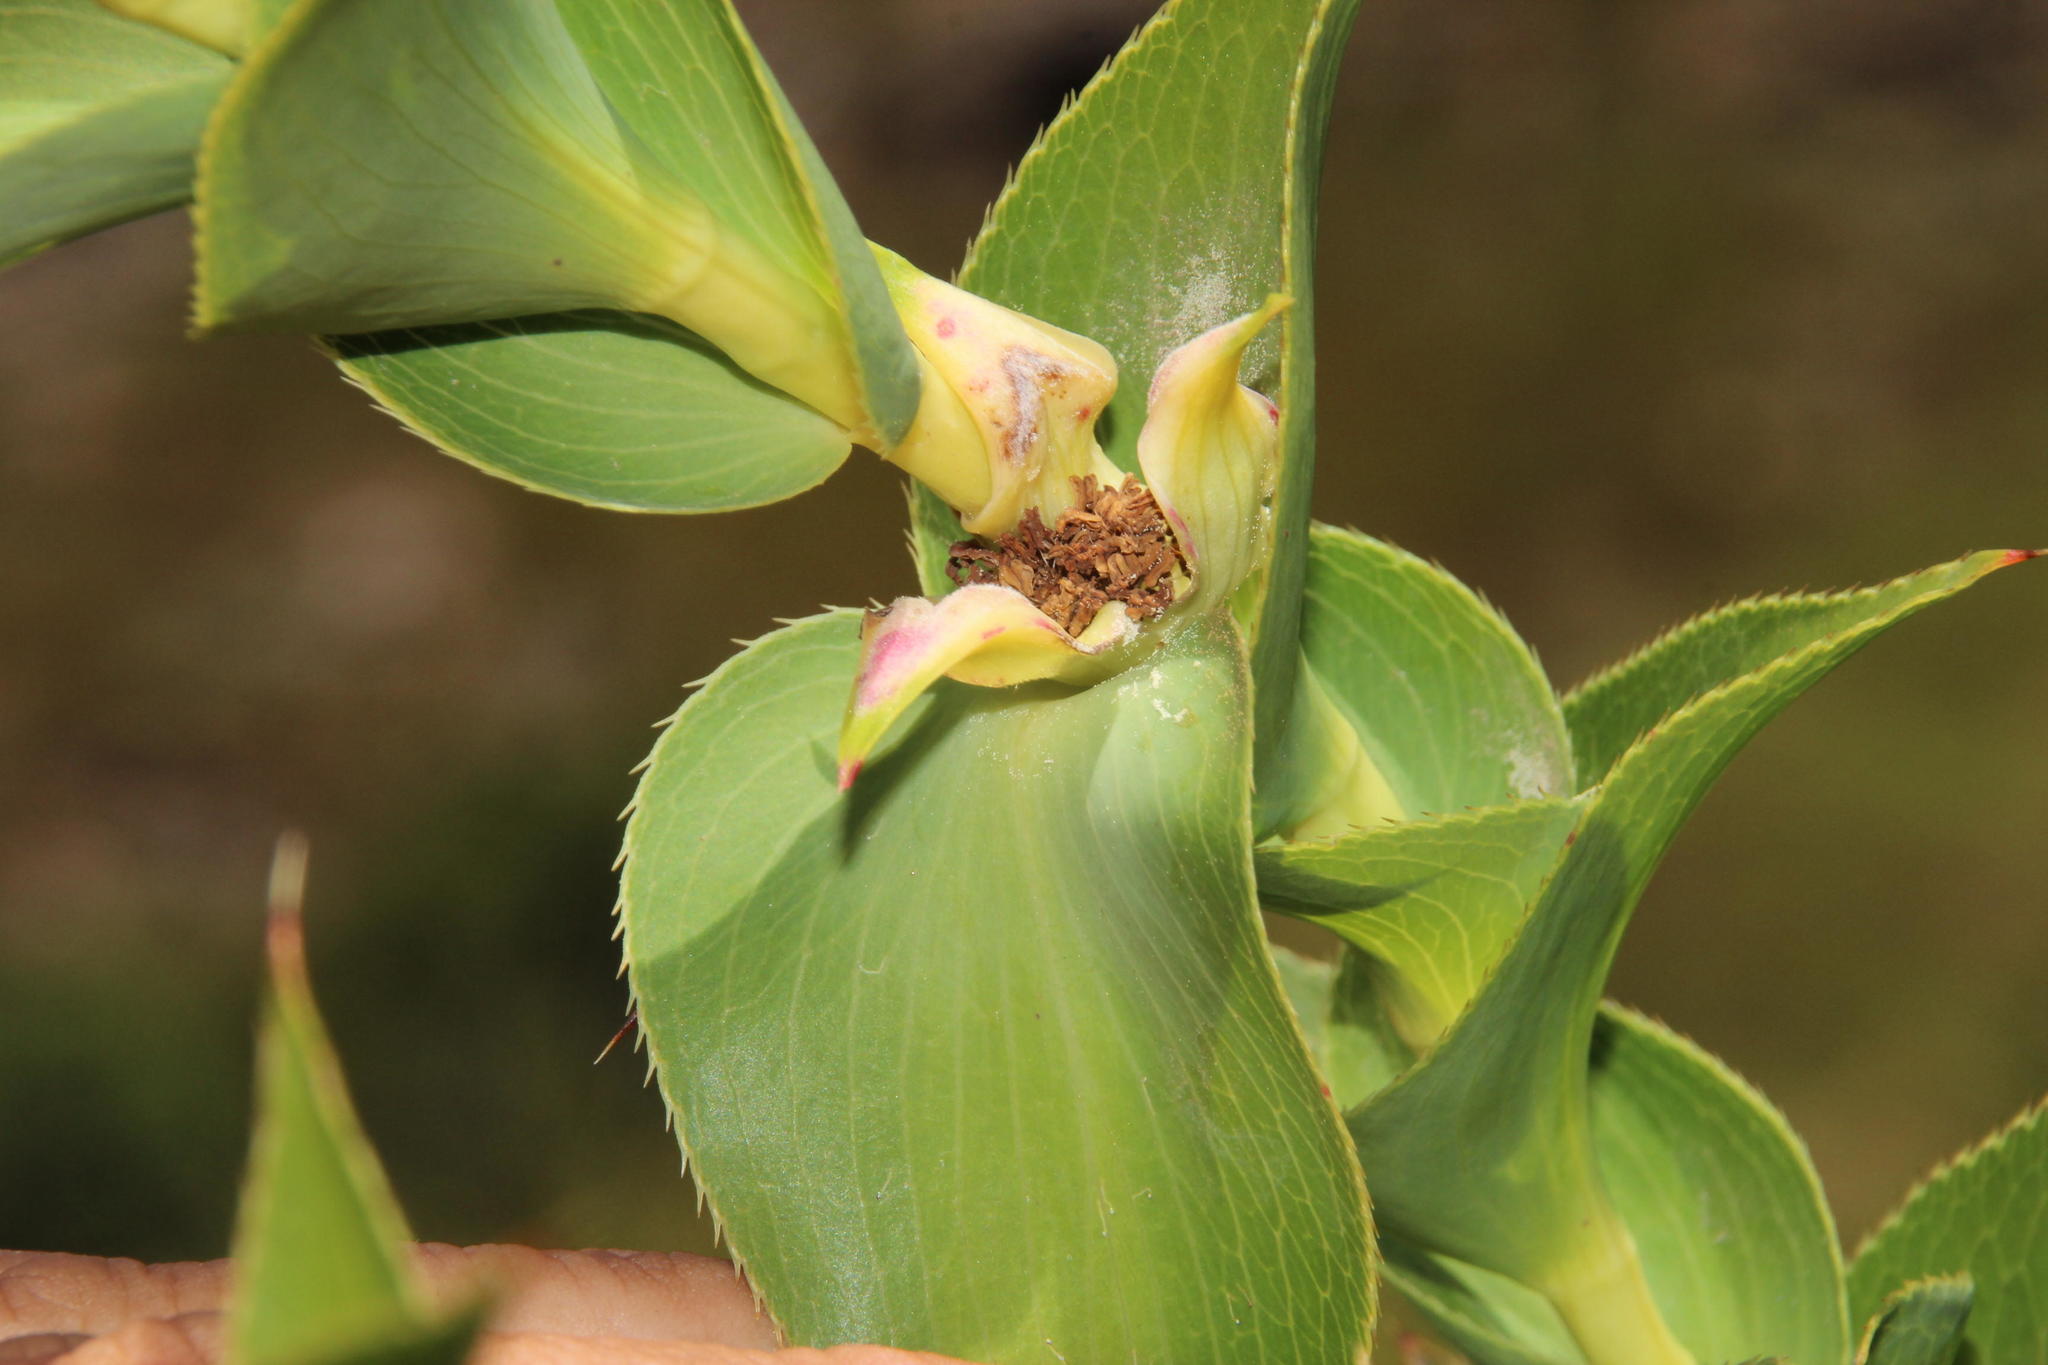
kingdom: Plantae
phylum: Tracheophyta
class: Magnoliopsida
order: Rosales
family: Rosaceae
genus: Cliffortia
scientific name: Cliffortia denticulata
